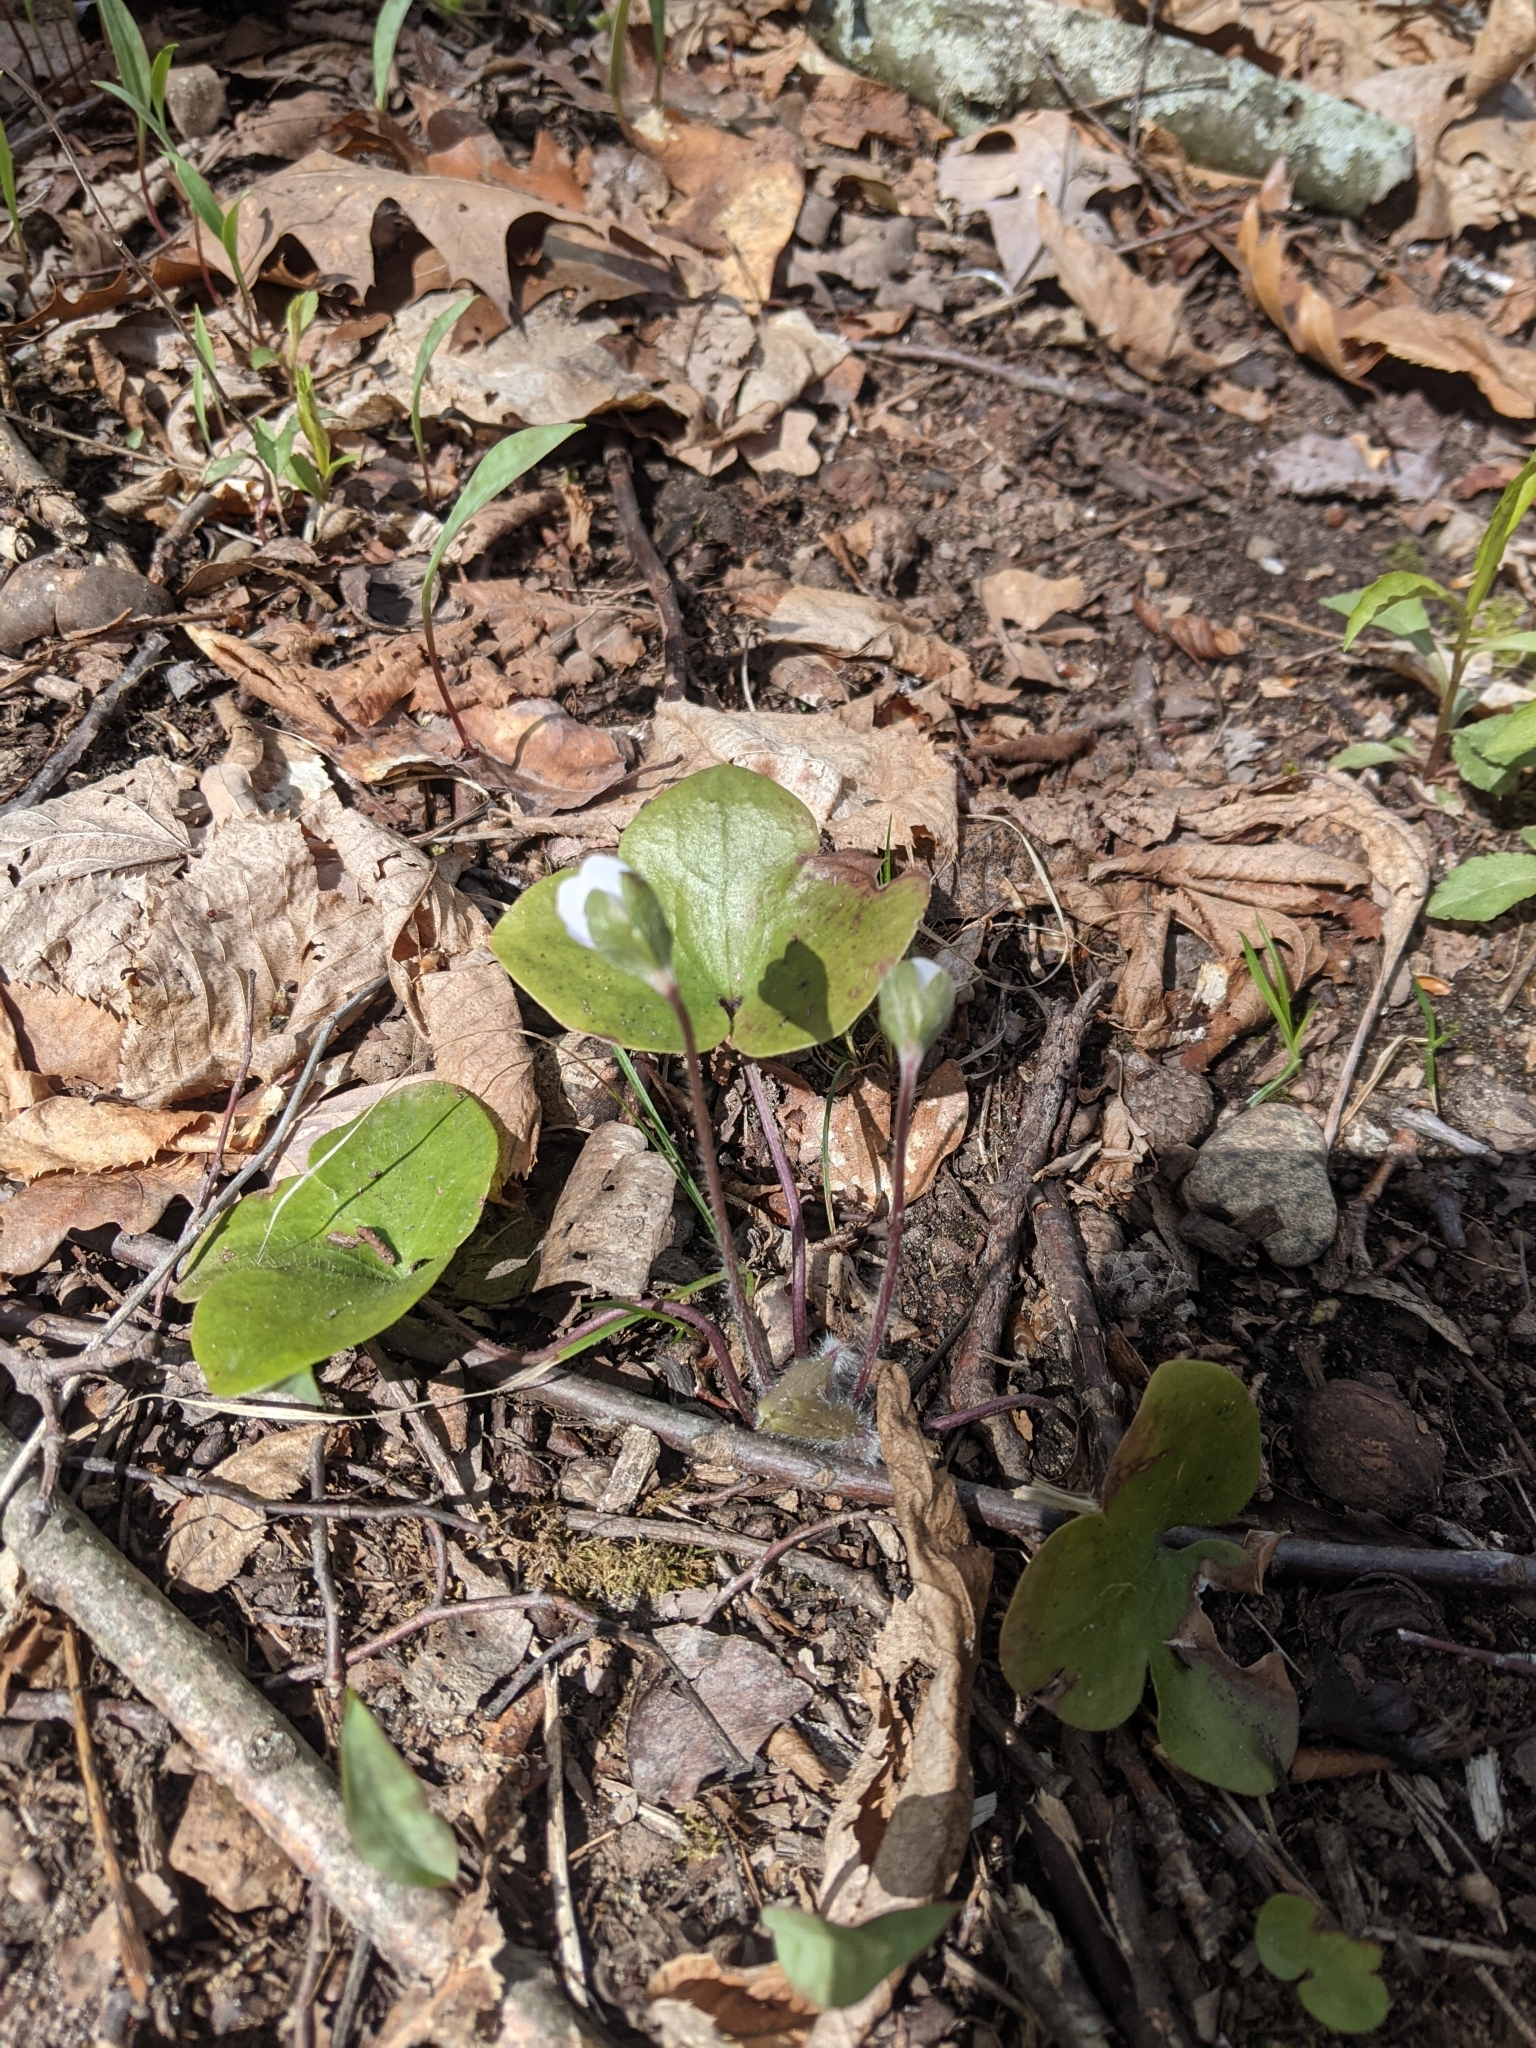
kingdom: Plantae
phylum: Tracheophyta
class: Magnoliopsida
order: Ranunculales
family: Ranunculaceae
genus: Hepatica
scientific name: Hepatica americana
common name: American hepatica
